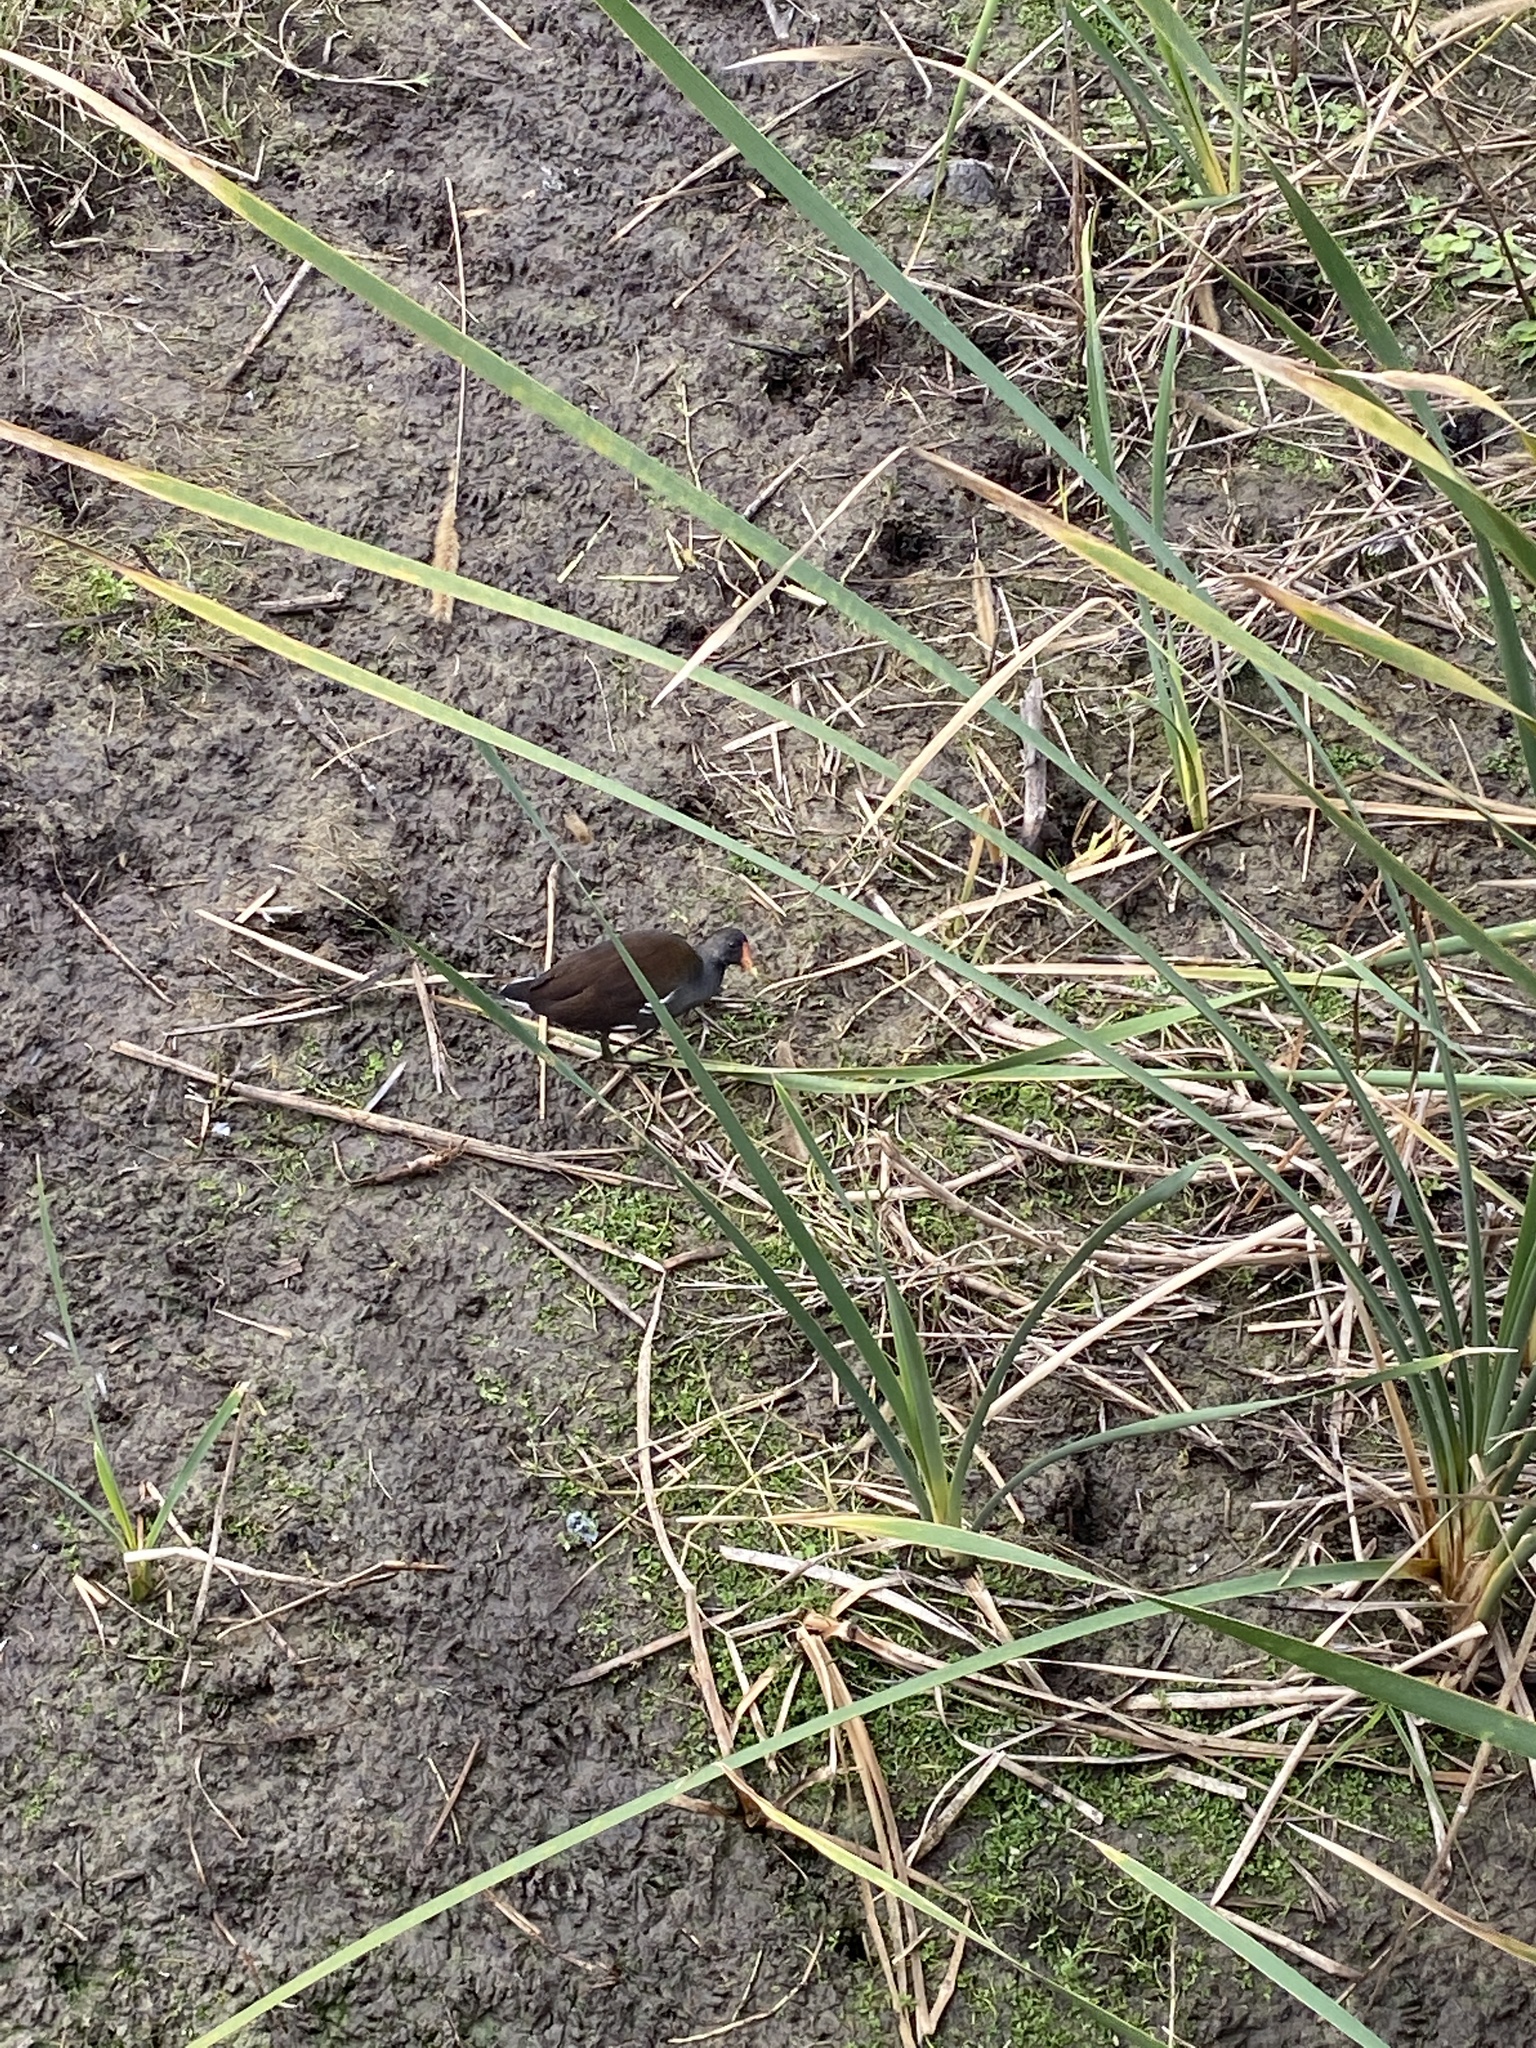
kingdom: Animalia
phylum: Chordata
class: Aves
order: Gruiformes
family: Rallidae
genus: Gallinula
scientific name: Gallinula chloropus
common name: Common moorhen
